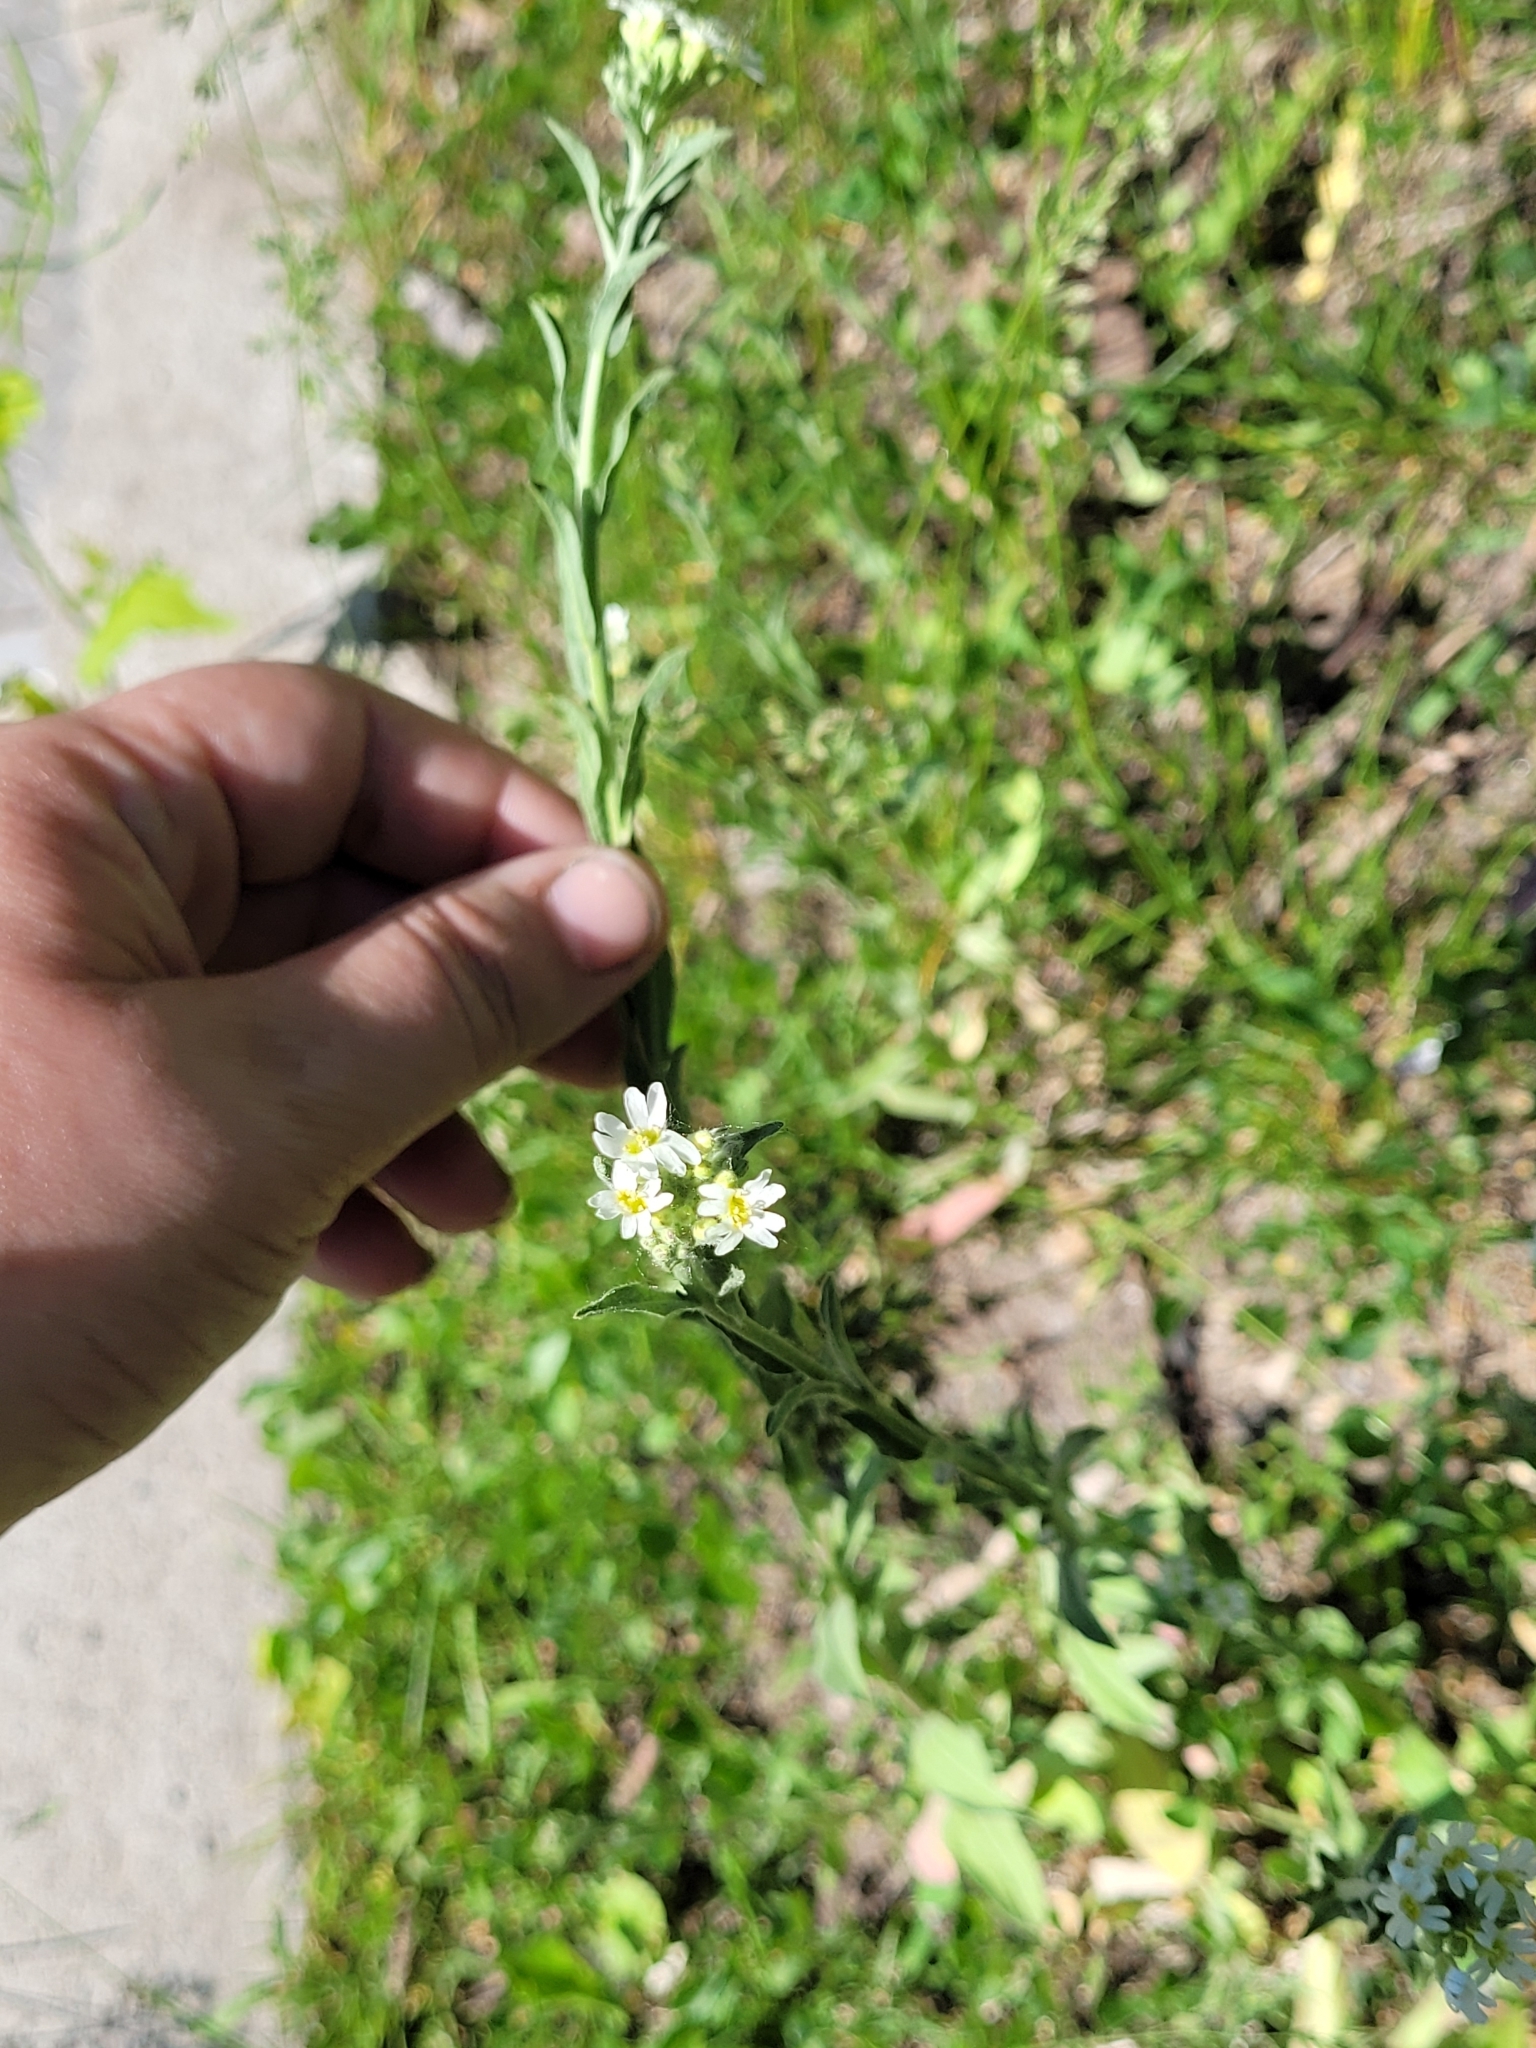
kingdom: Plantae
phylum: Tracheophyta
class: Magnoliopsida
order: Brassicales
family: Brassicaceae
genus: Berteroa
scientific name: Berteroa incana
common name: Hoary alison
